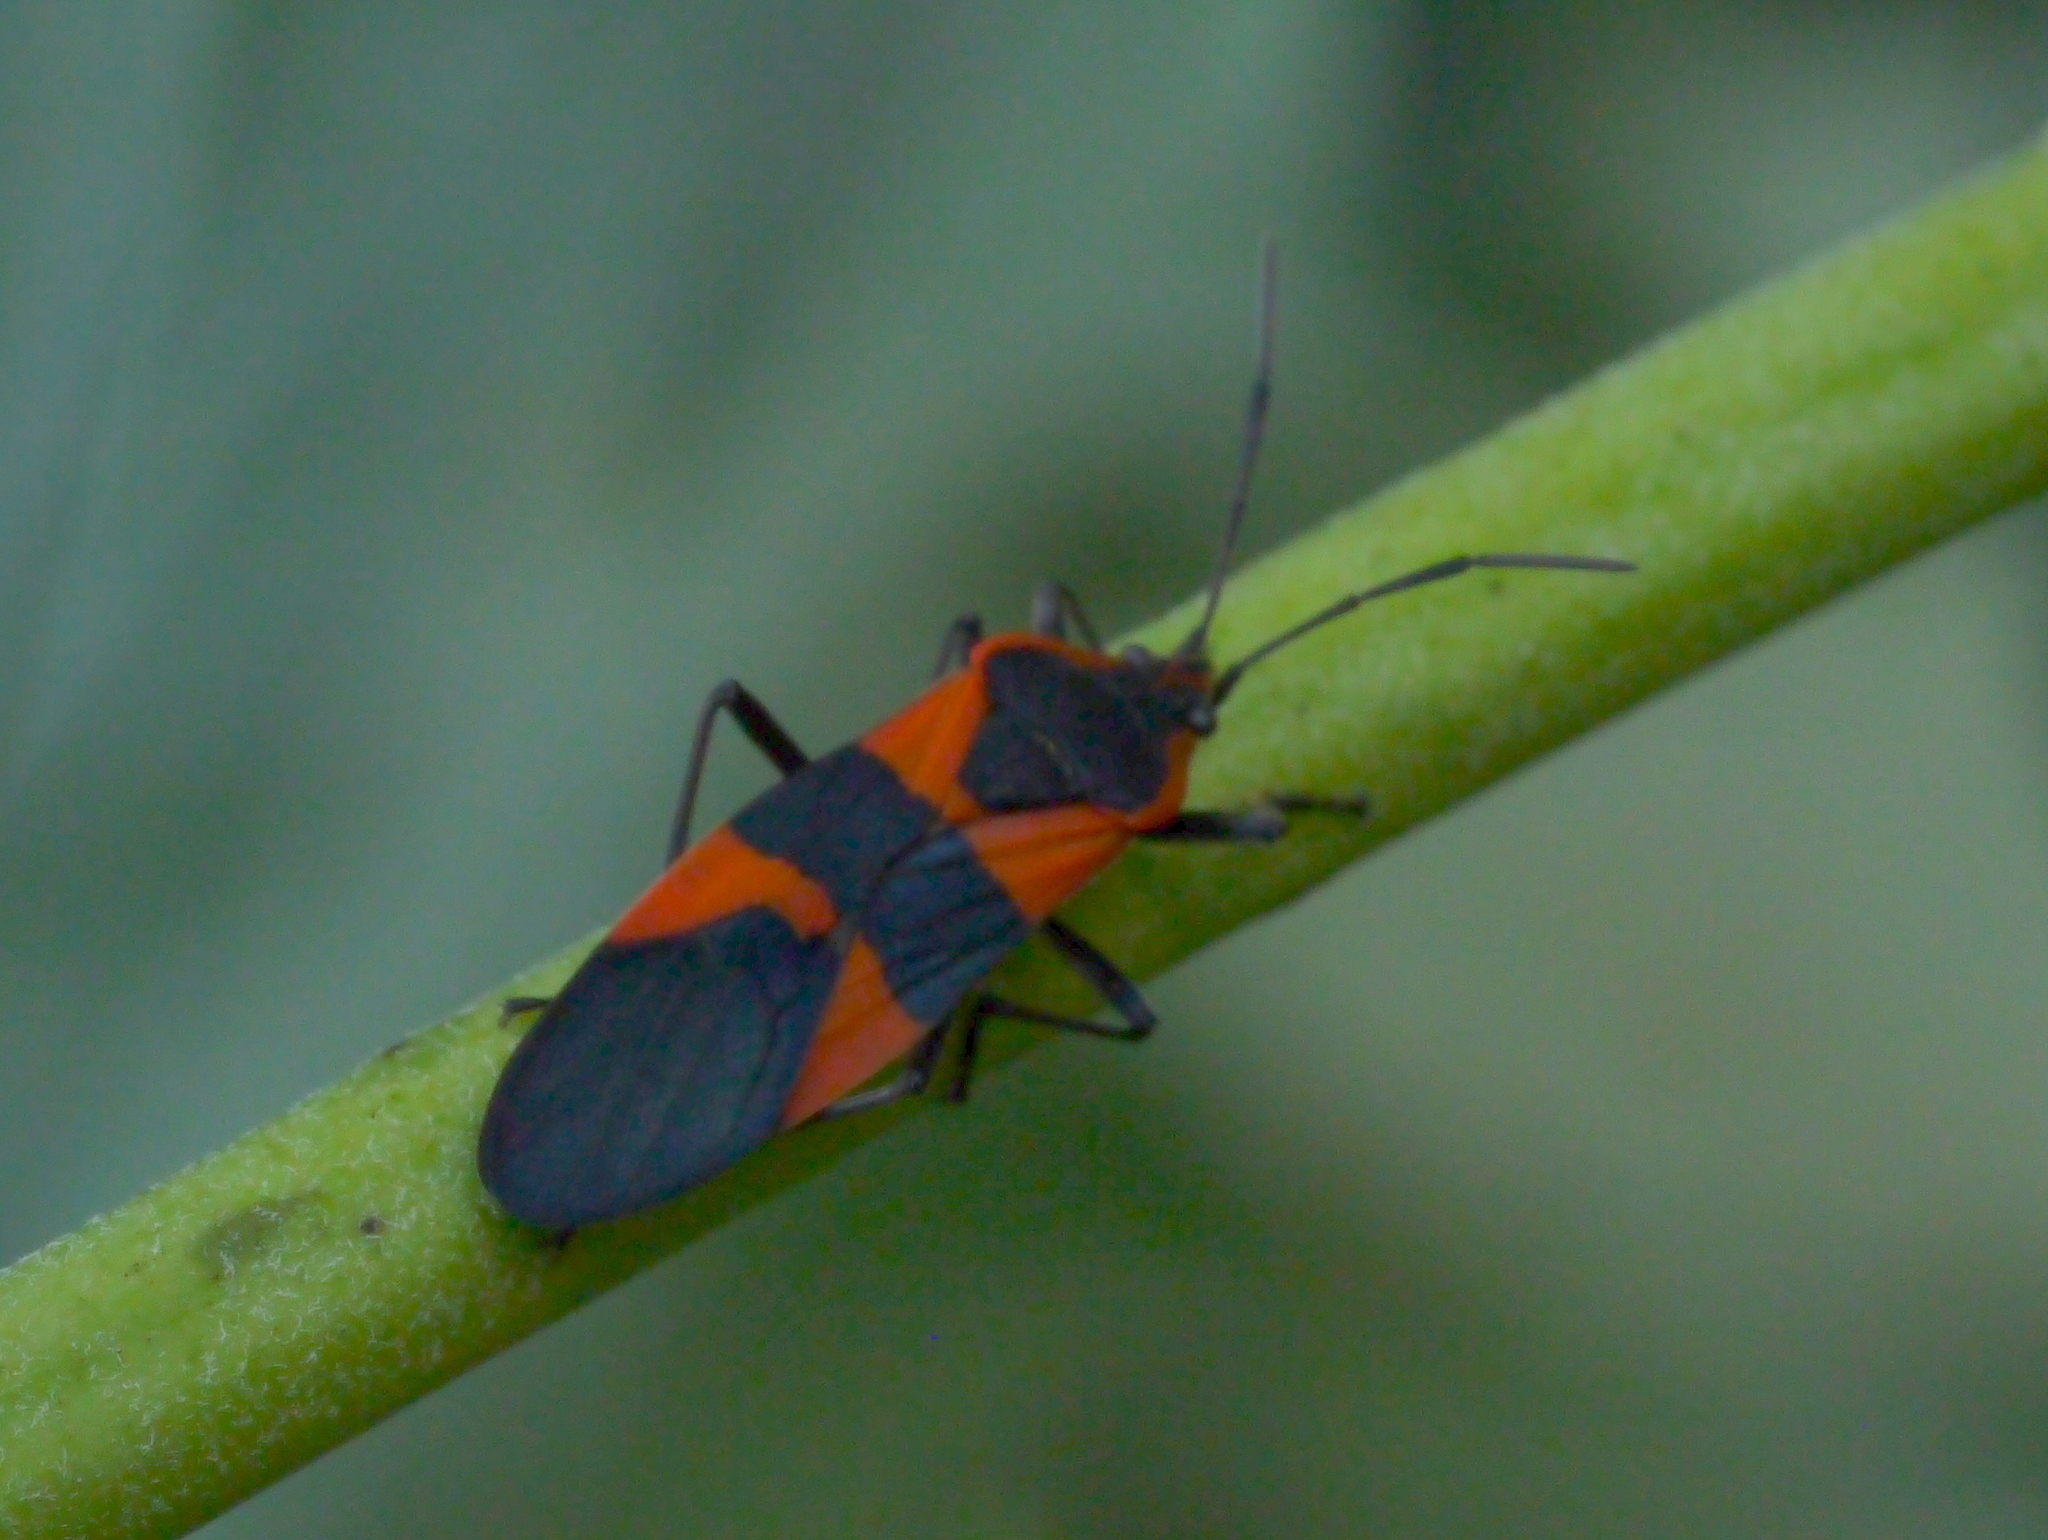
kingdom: Animalia
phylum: Arthropoda
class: Insecta
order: Hemiptera
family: Lygaeidae
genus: Oncopeltus
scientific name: Oncopeltus fasciatus
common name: Large milkweed bug
